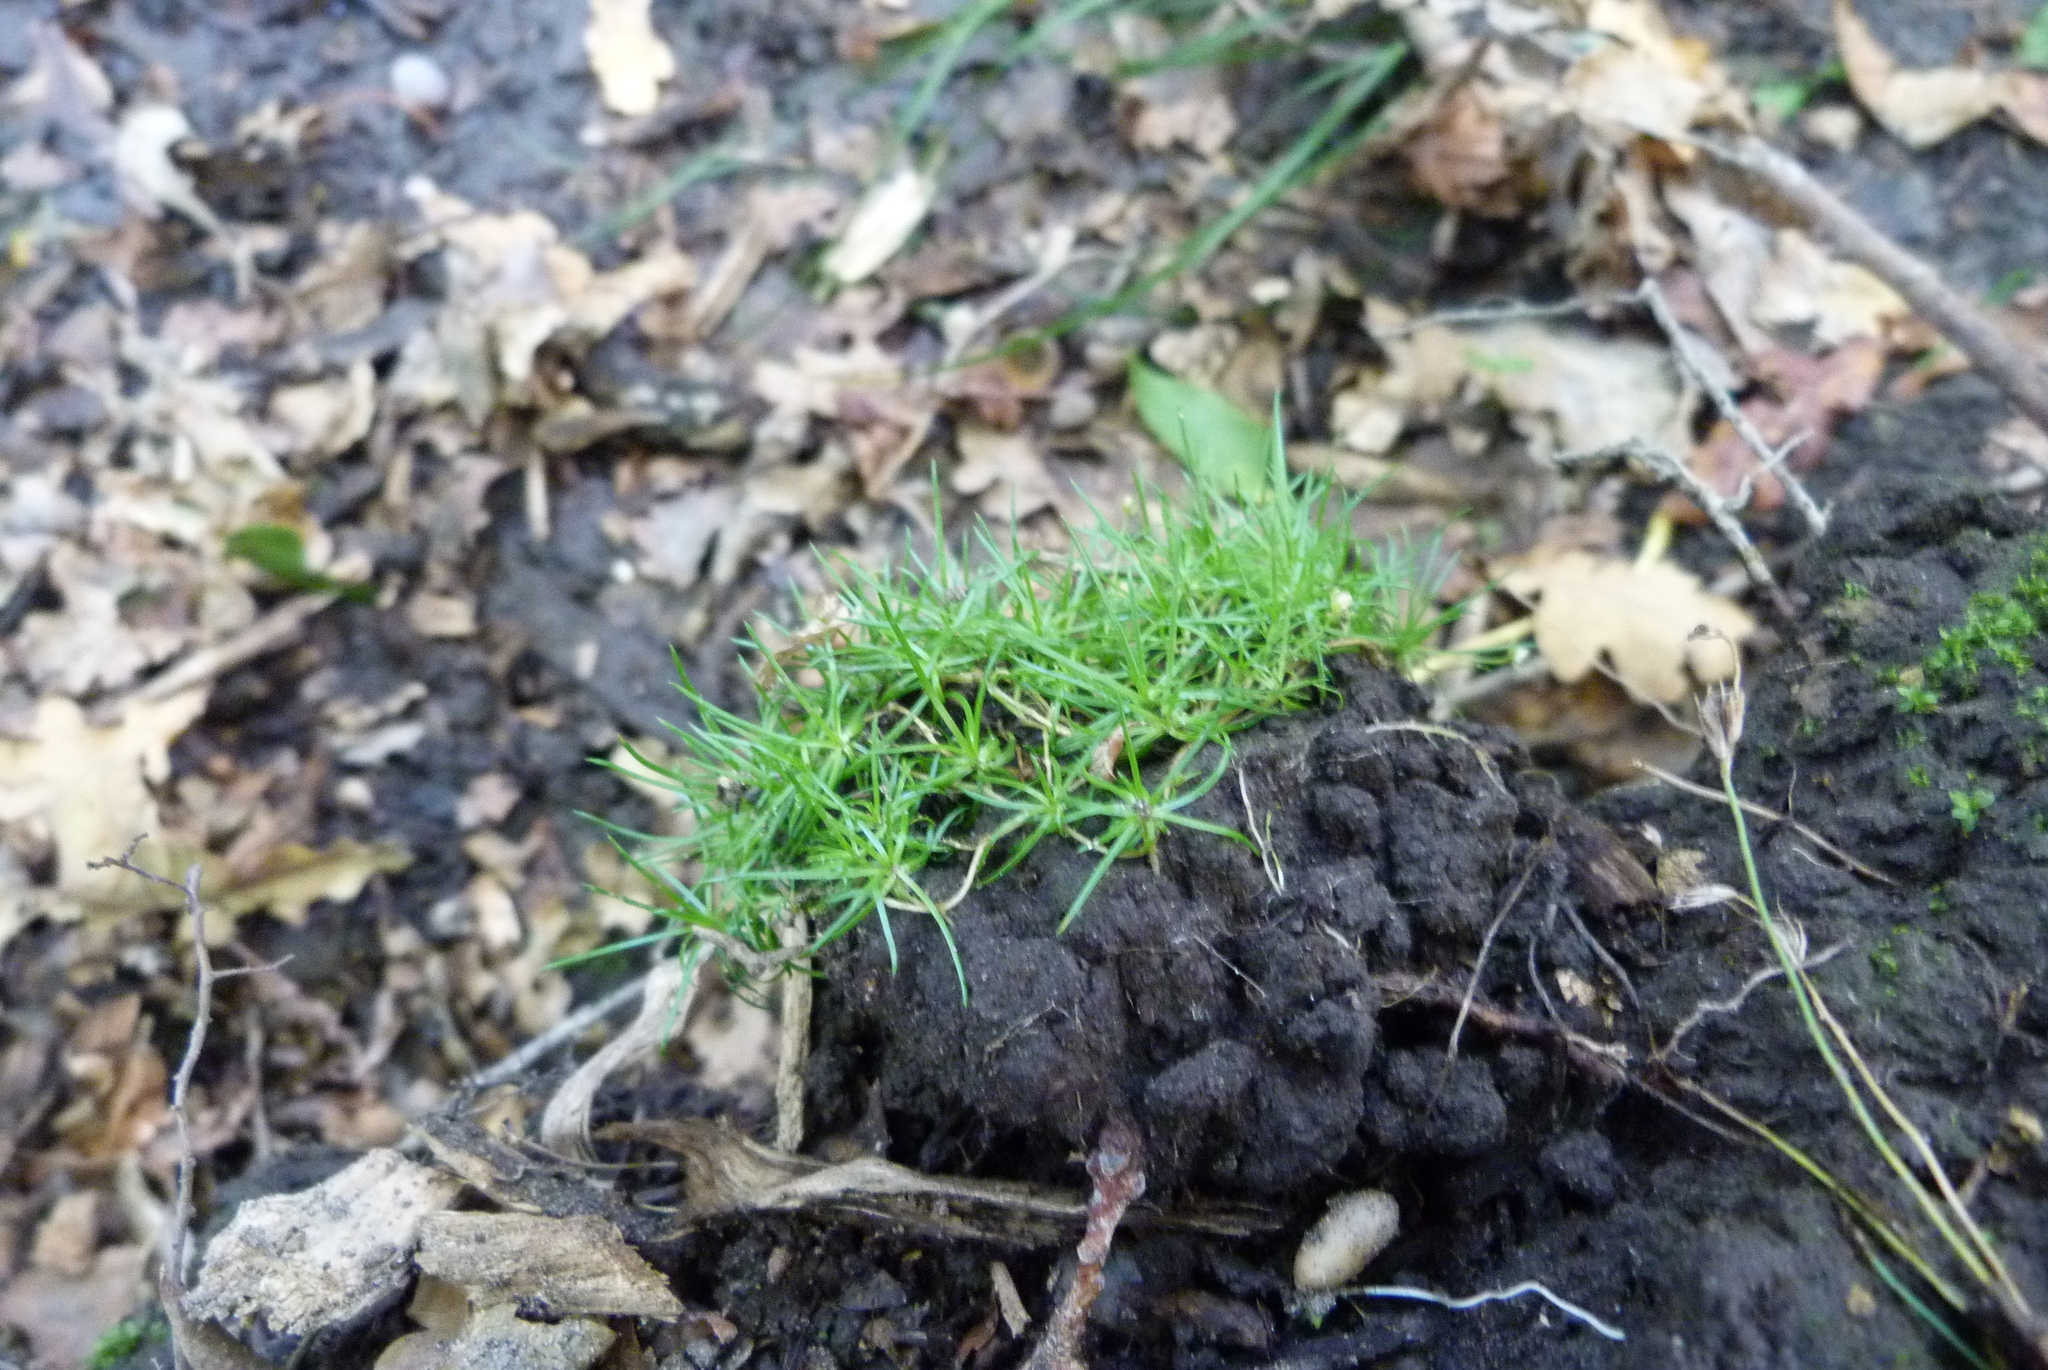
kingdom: Plantae
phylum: Tracheophyta
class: Magnoliopsida
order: Caryophyllales
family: Caryophyllaceae
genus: Sagina
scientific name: Sagina procumbens
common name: Procumbent pearlwort
